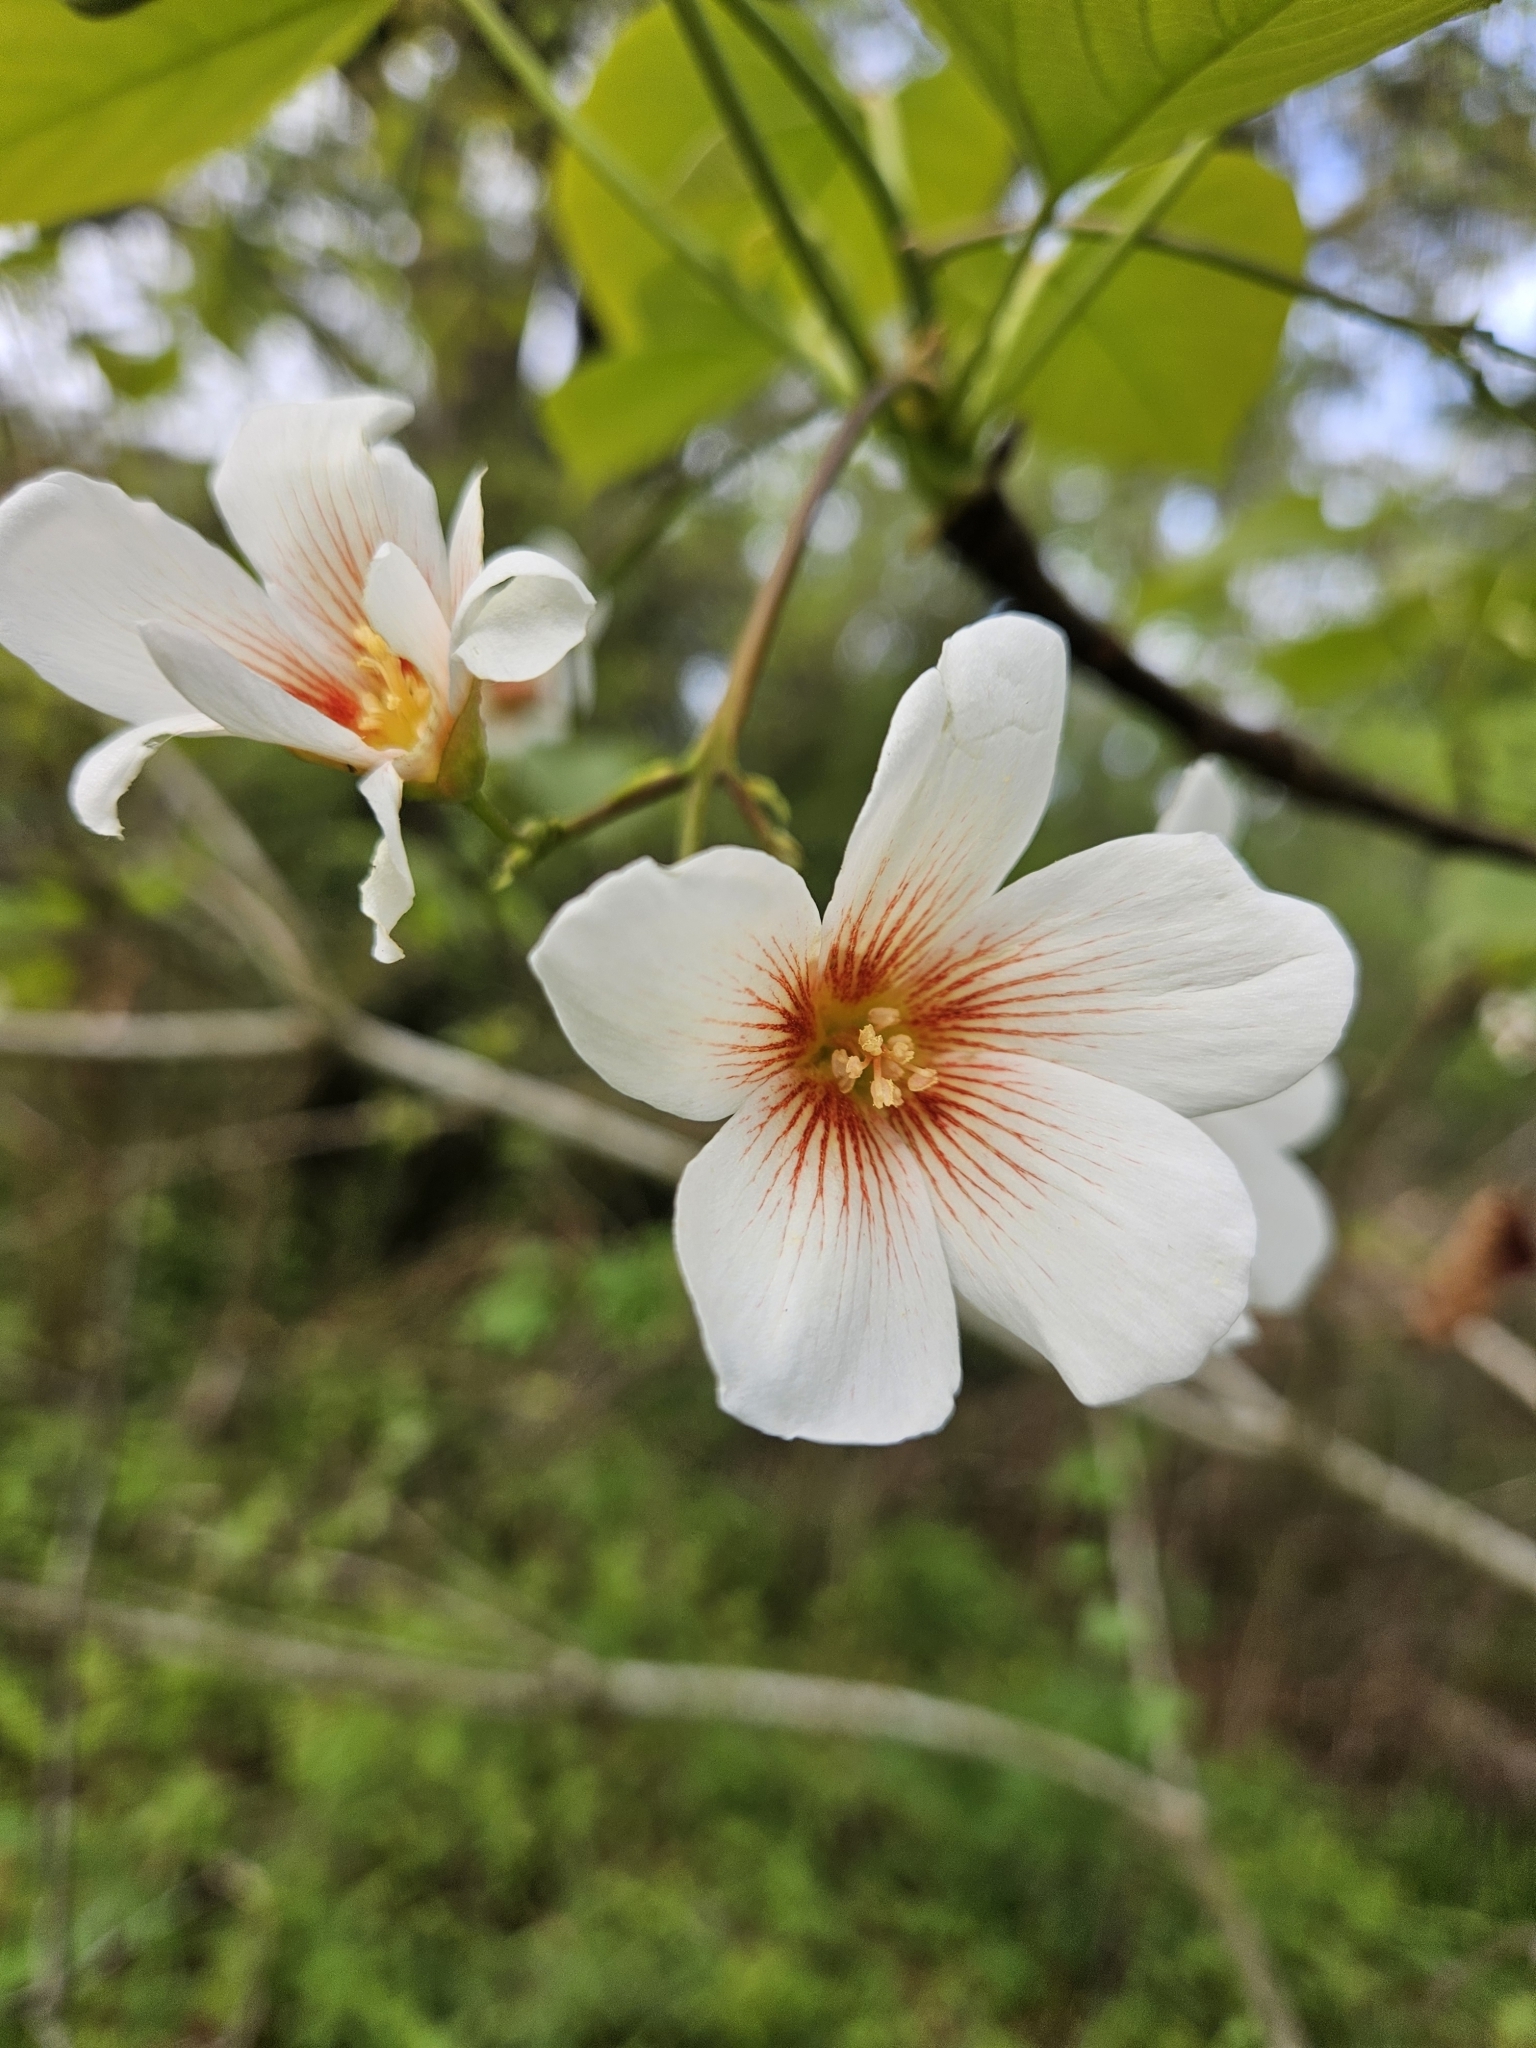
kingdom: Plantae
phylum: Tracheophyta
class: Magnoliopsida
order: Malpighiales
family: Euphorbiaceae
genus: Vernicia
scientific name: Vernicia fordii
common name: Tungoil tree
